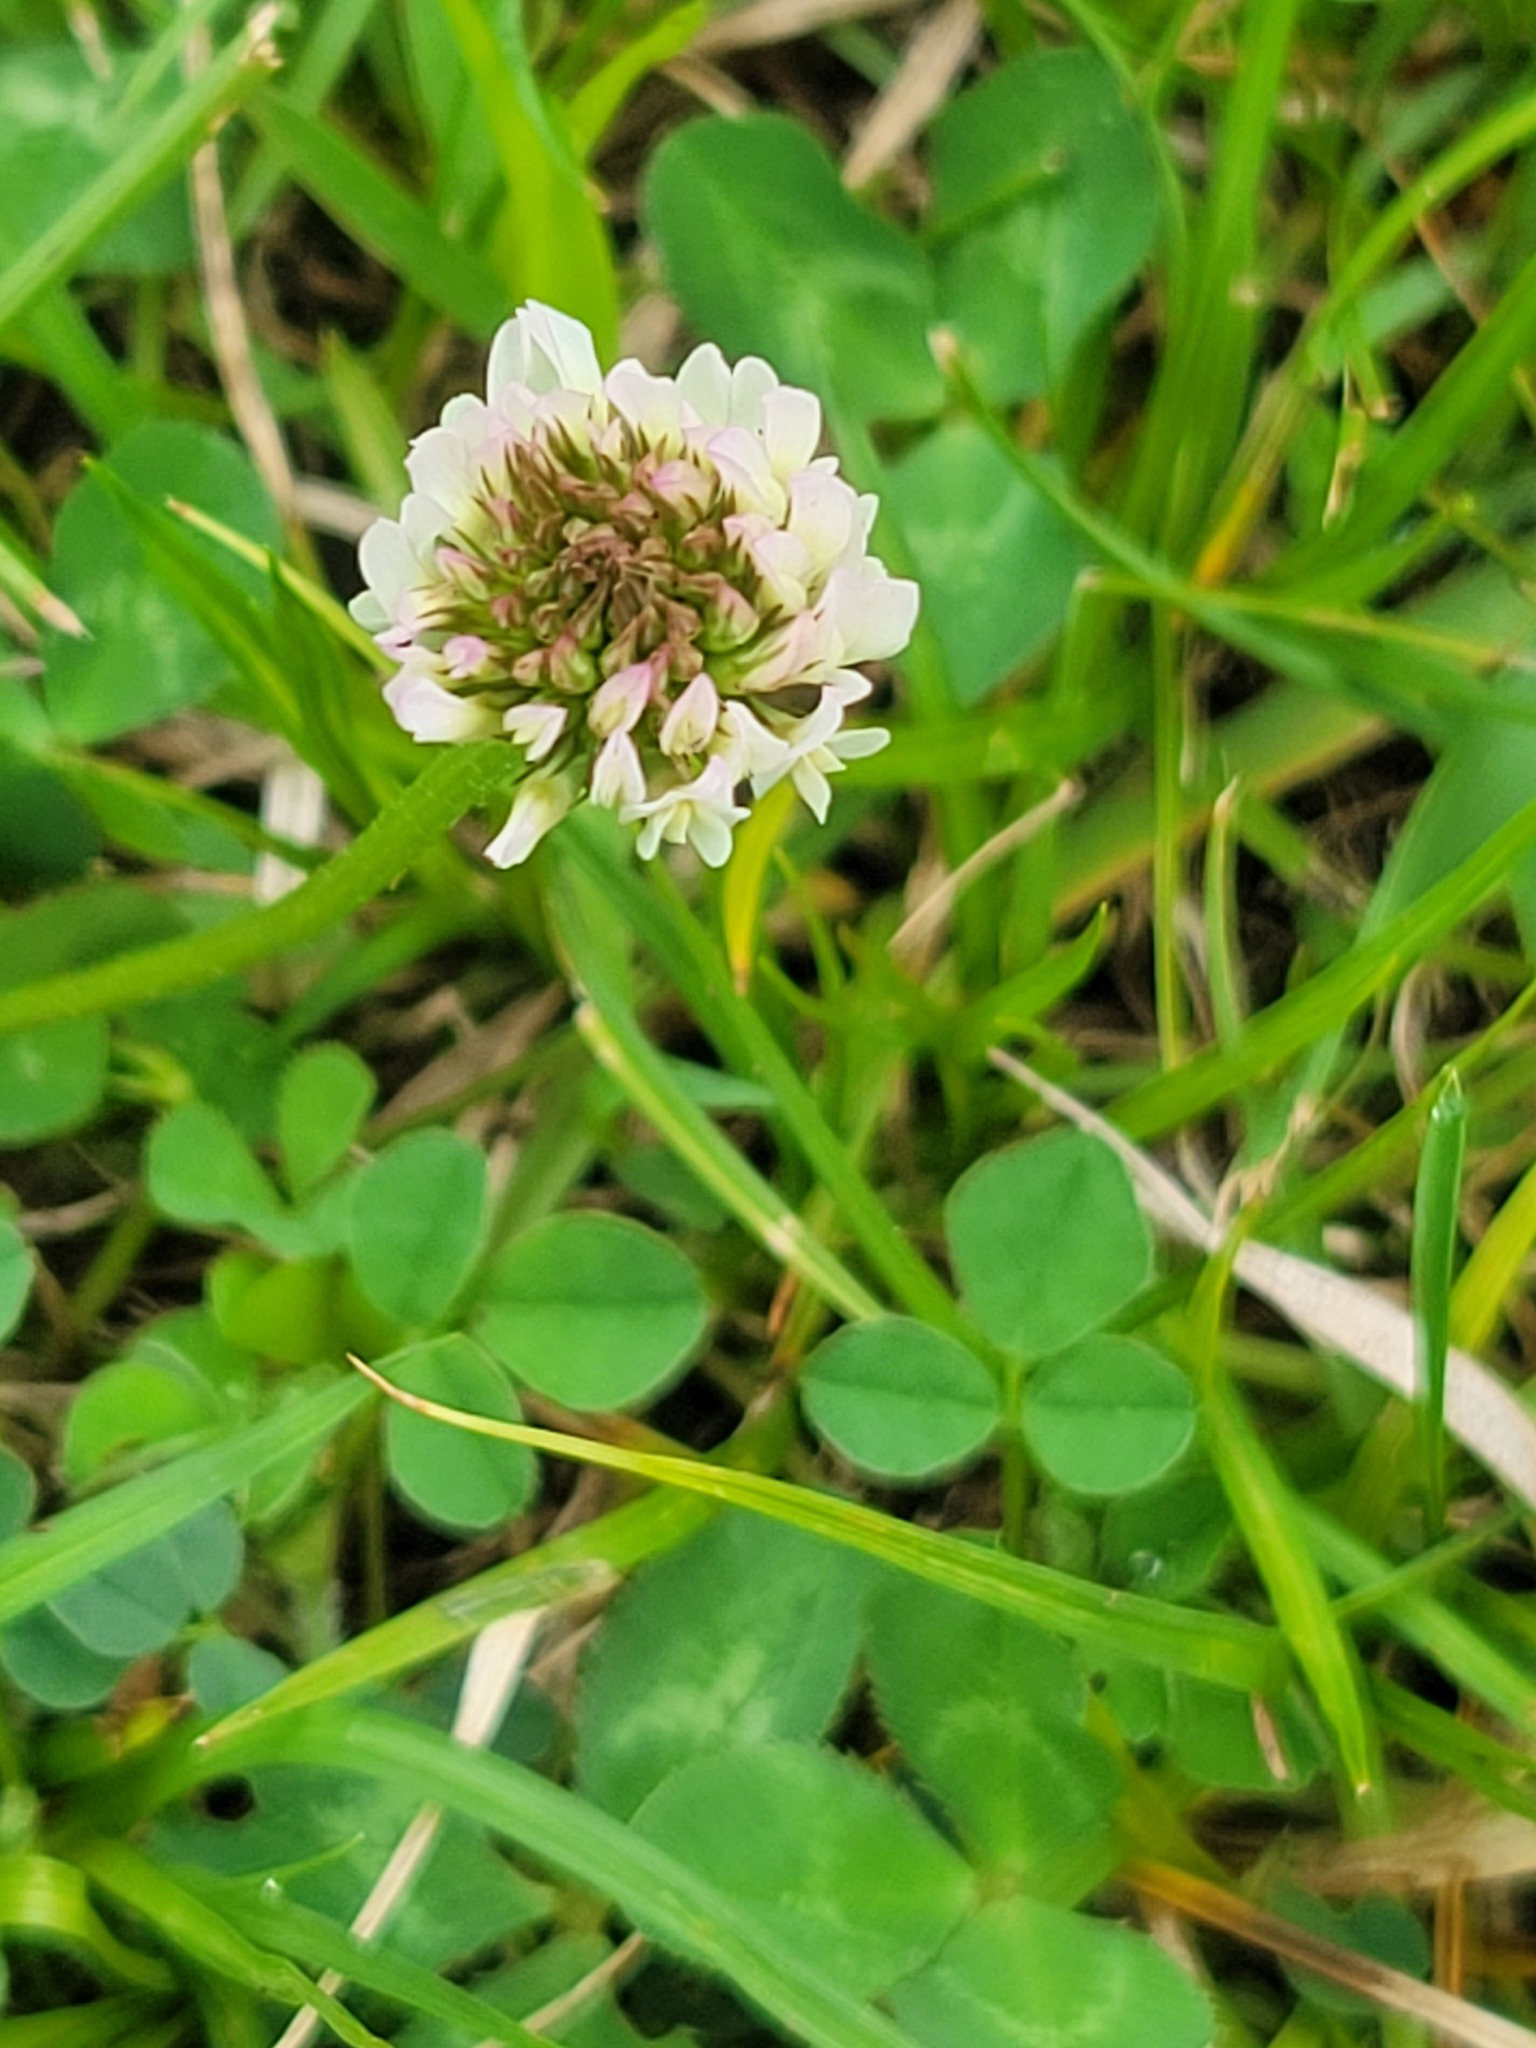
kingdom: Plantae
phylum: Tracheophyta
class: Magnoliopsida
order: Fabales
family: Fabaceae
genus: Trifolium
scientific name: Trifolium repens
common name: White clover
